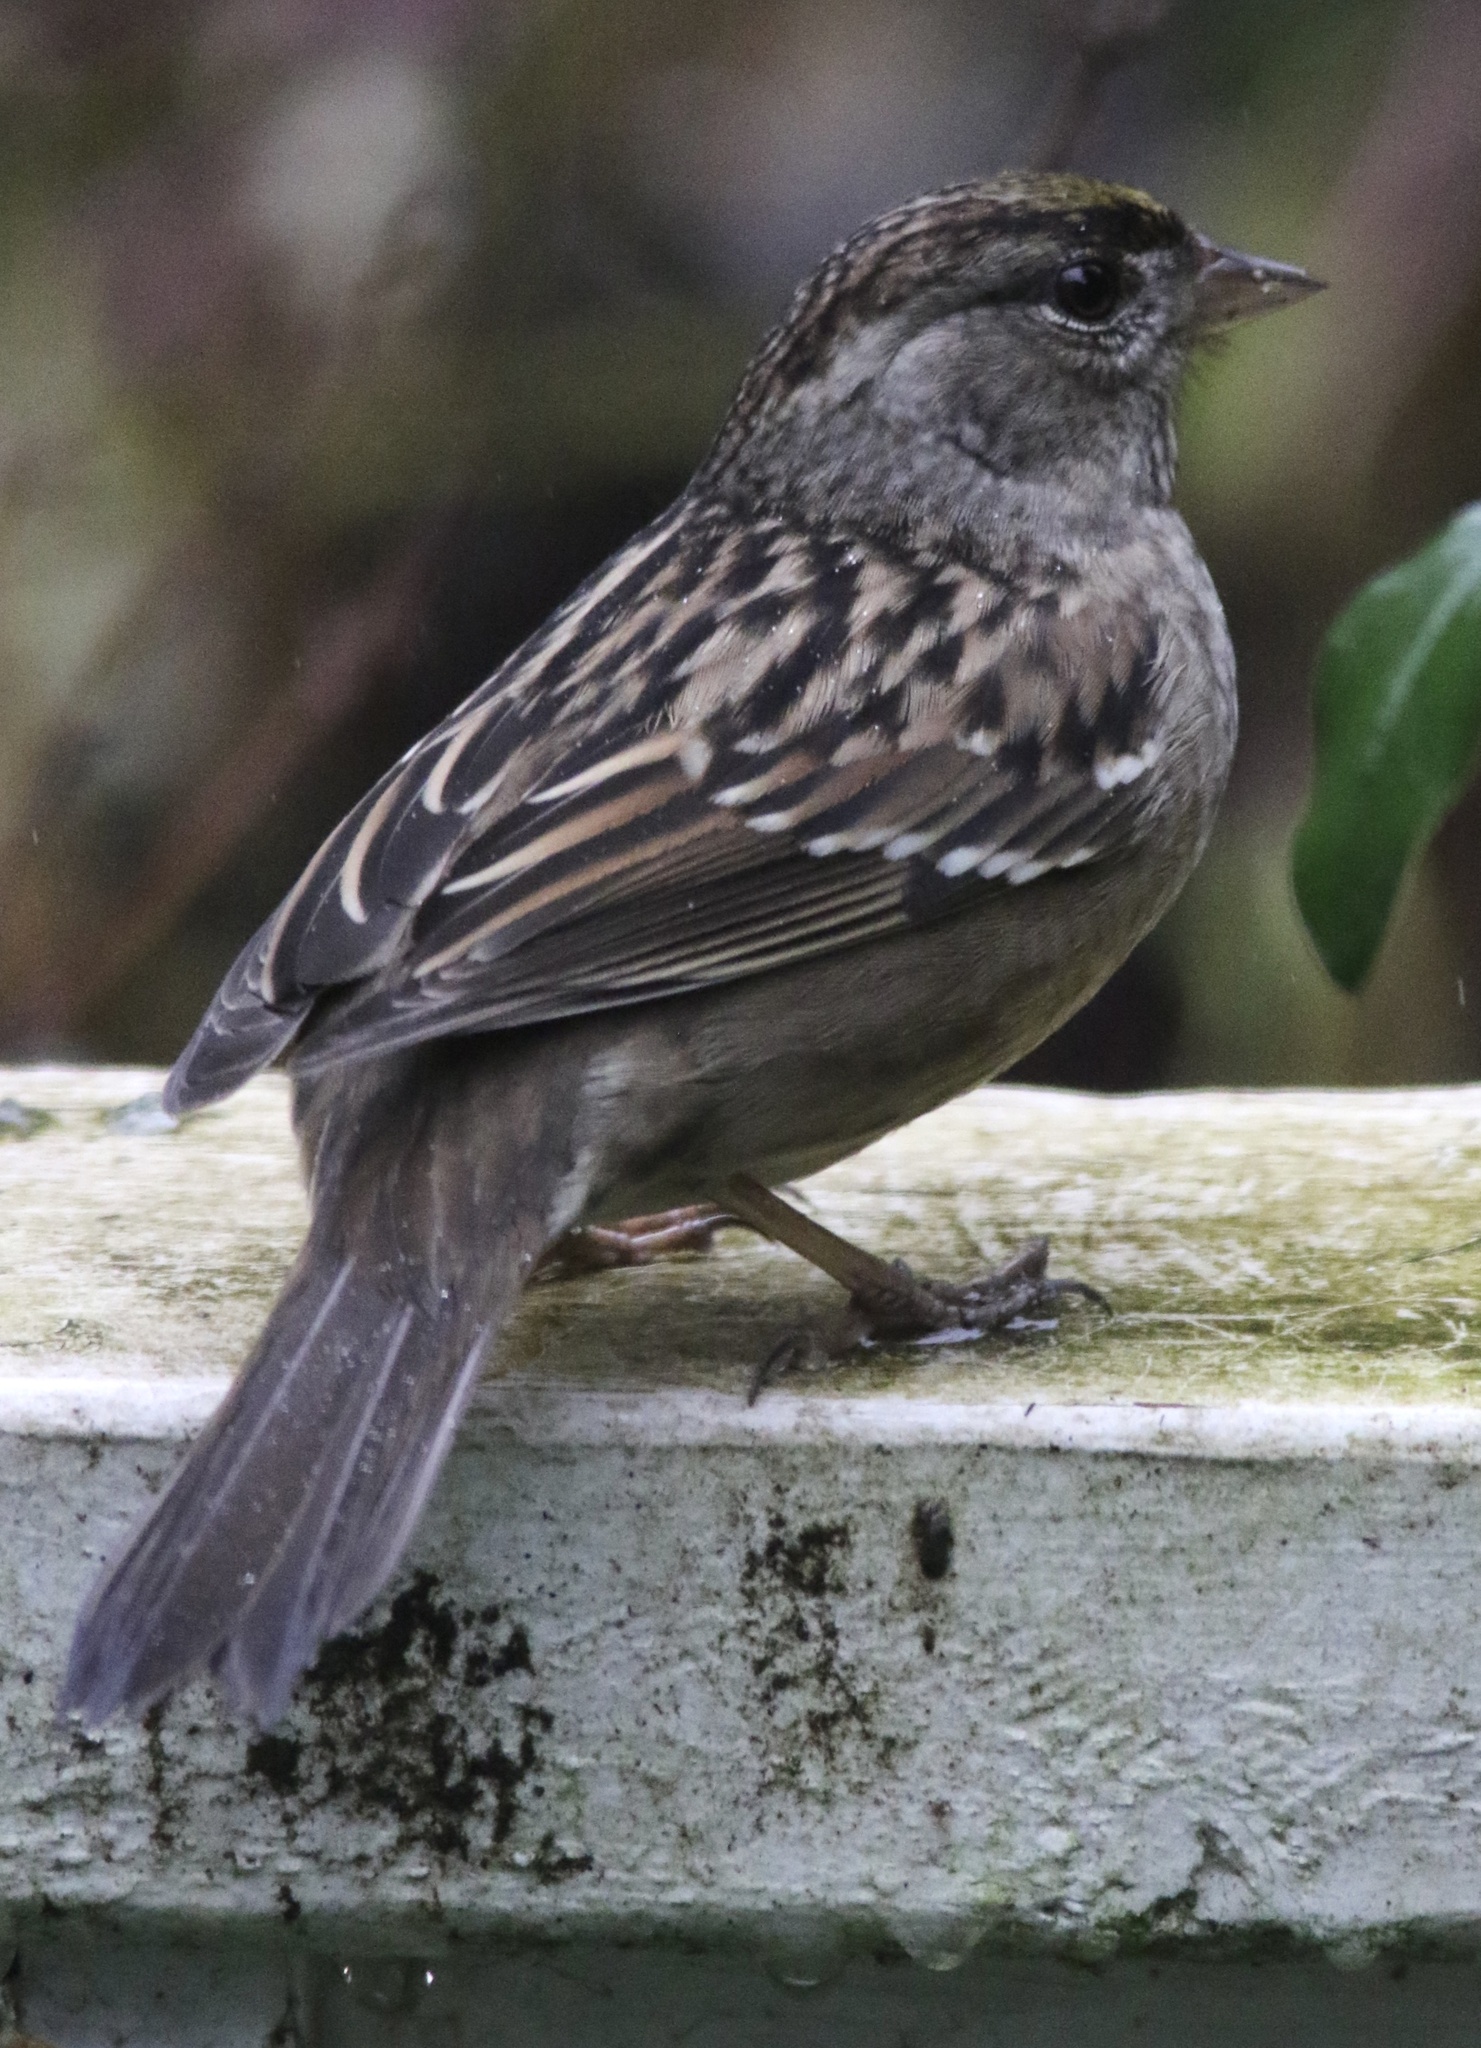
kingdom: Animalia
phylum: Chordata
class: Aves
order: Passeriformes
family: Passerellidae
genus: Zonotrichia
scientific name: Zonotrichia atricapilla
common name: Golden-crowned sparrow
